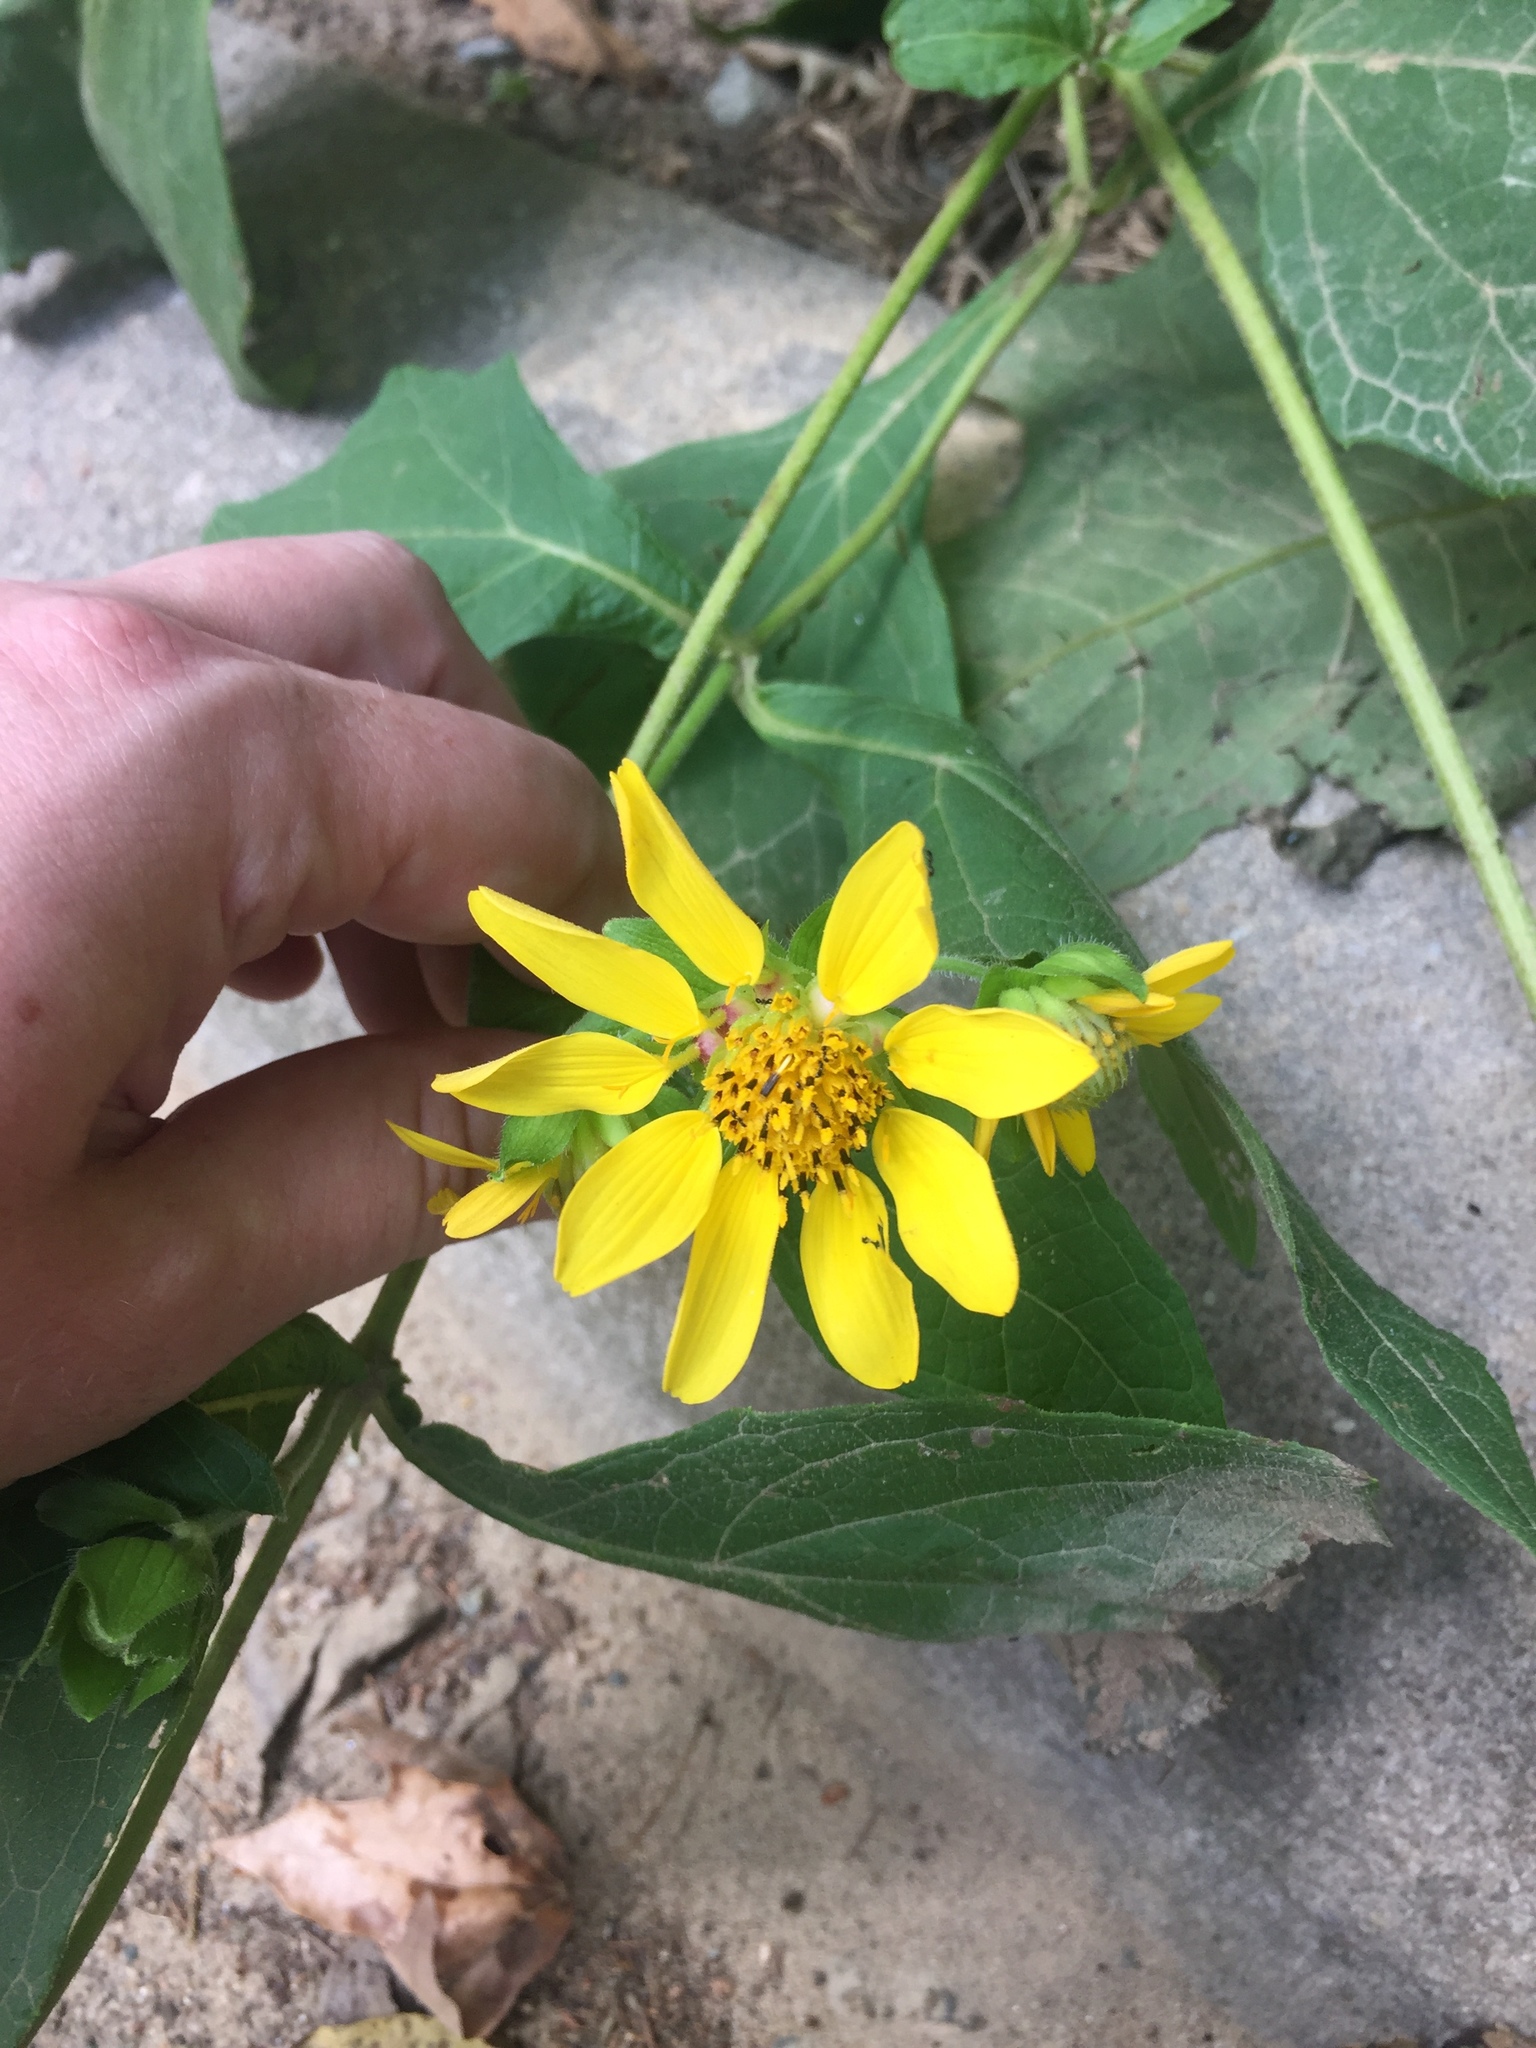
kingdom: Plantae
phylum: Tracheophyta
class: Magnoliopsida
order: Asterales
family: Asteraceae
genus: Smallanthus
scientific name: Smallanthus uvedalia
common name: Bear's-foot
